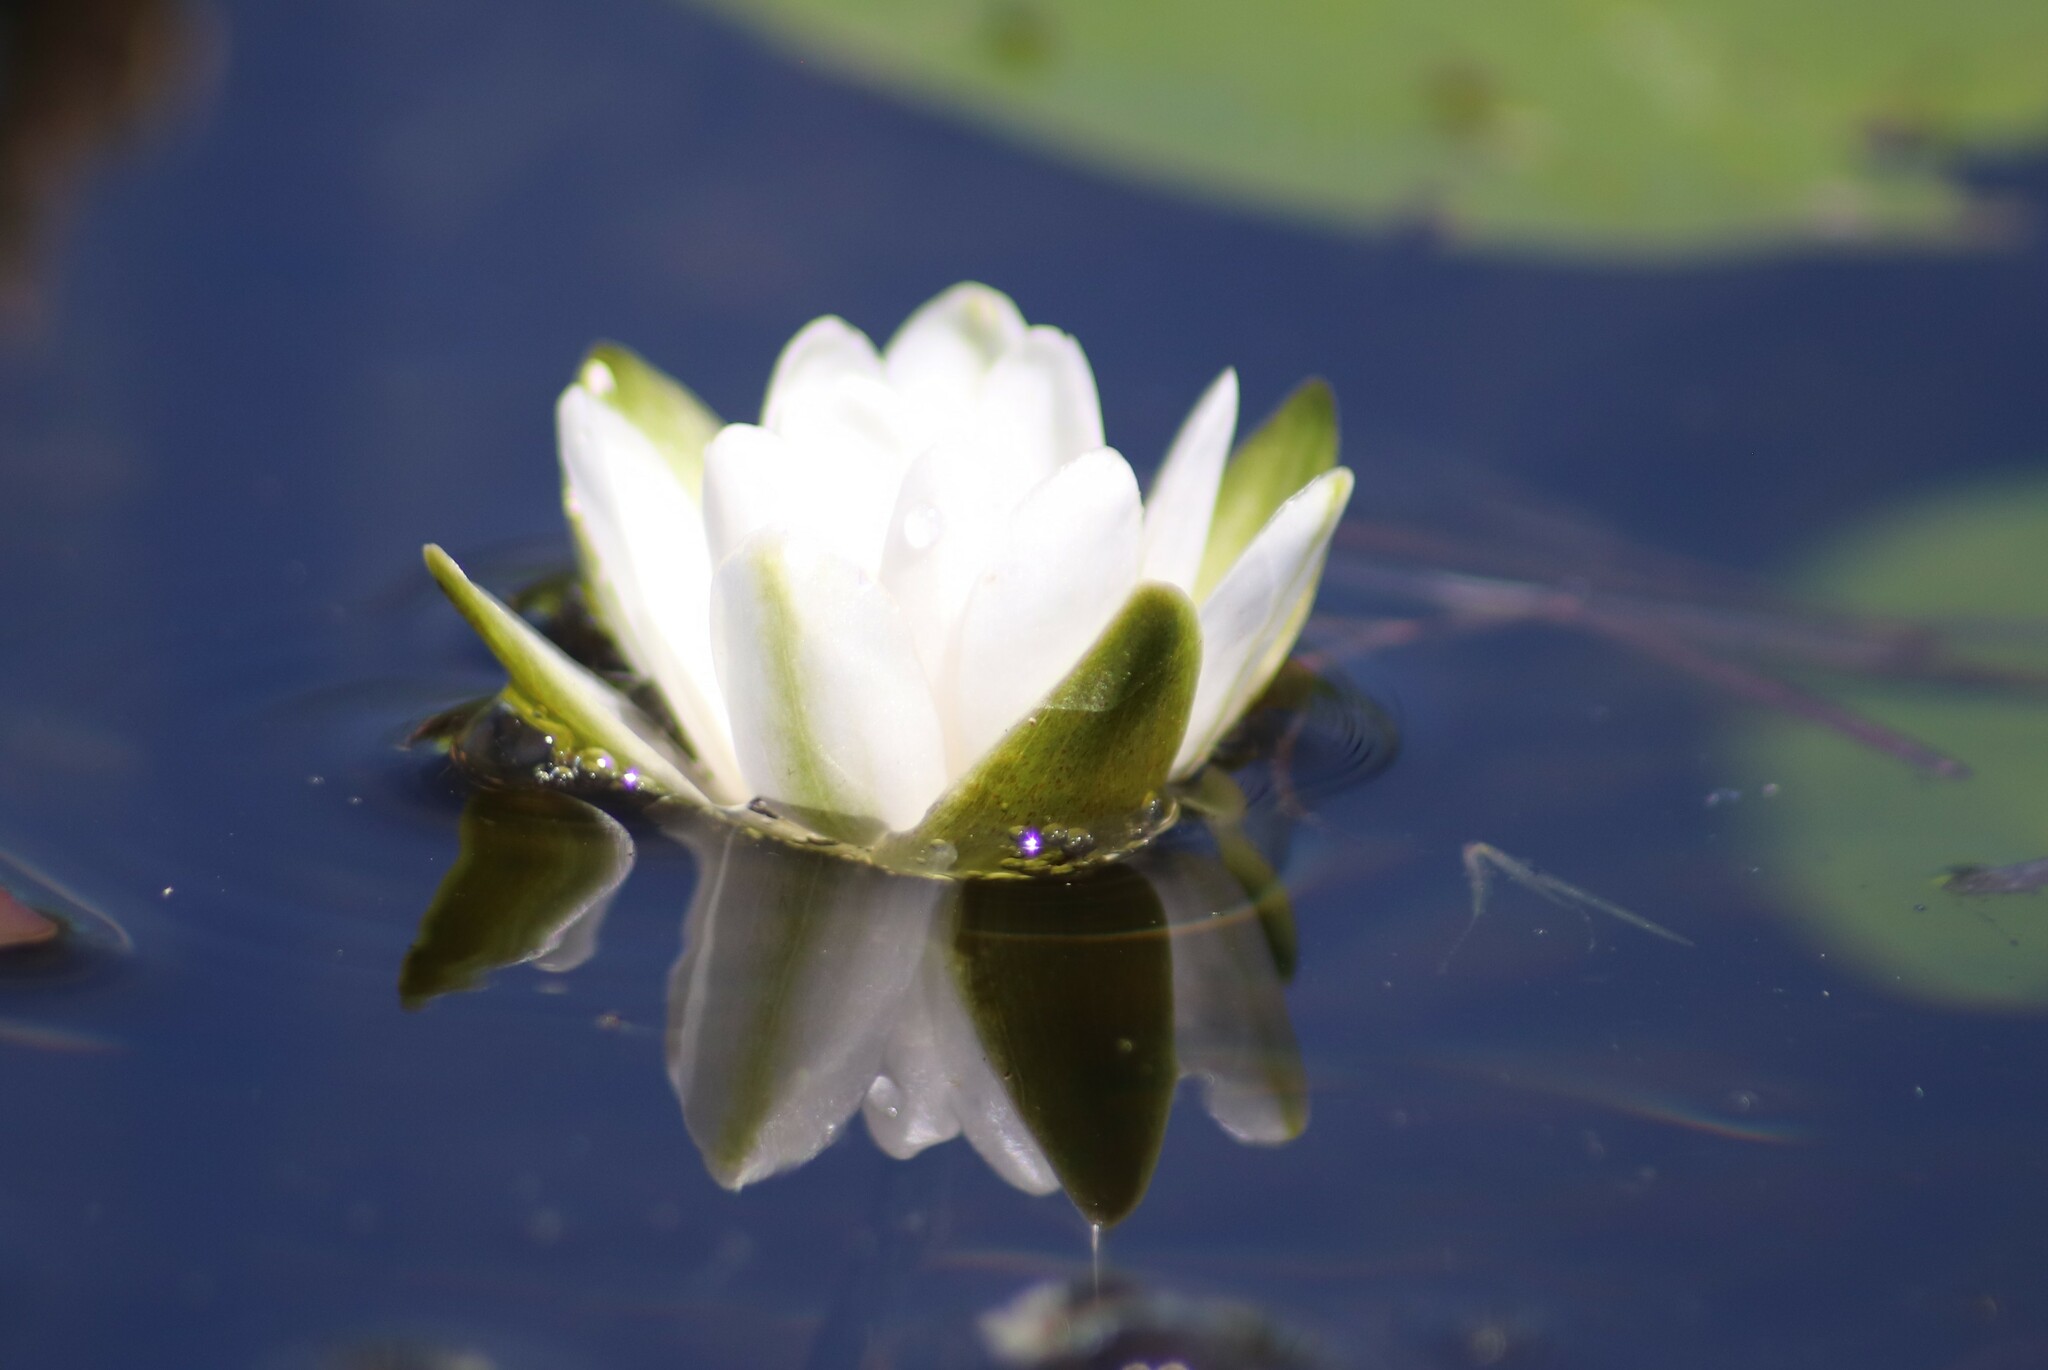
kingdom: Plantae
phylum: Tracheophyta
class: Magnoliopsida
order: Nymphaeales
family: Nymphaeaceae
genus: Nymphaea
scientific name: Nymphaea odorata
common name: Fragrant water-lily
